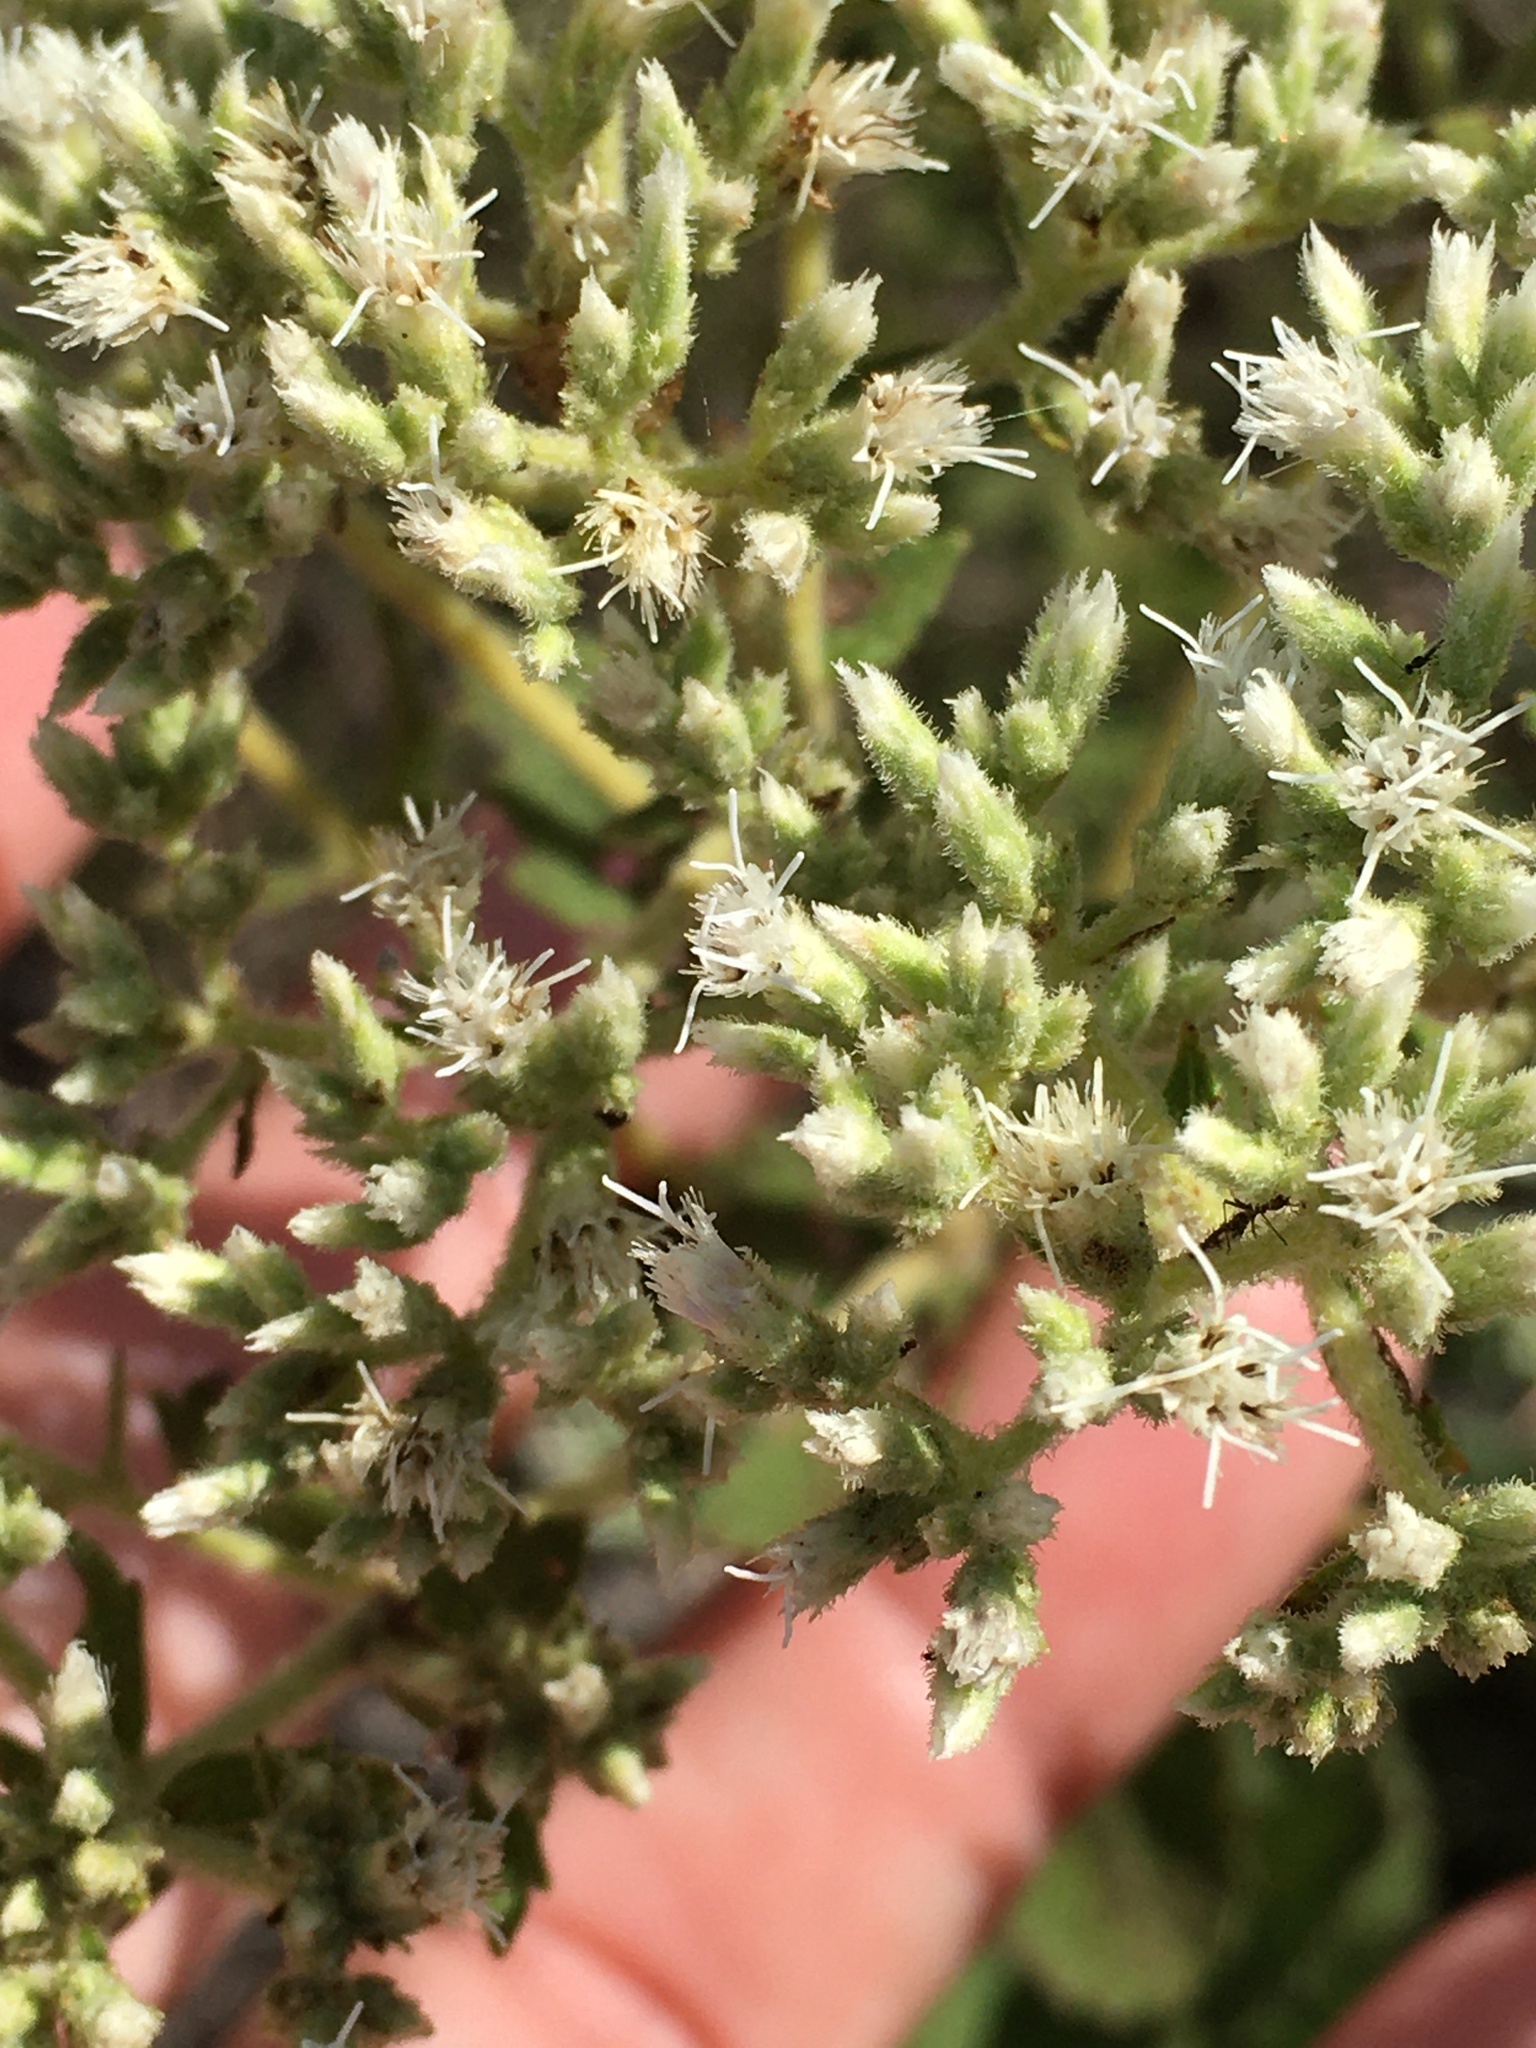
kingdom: Plantae
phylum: Tracheophyta
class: Magnoliopsida
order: Asterales
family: Asteraceae
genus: Eupatorium
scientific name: Eupatorium rotundifolium
